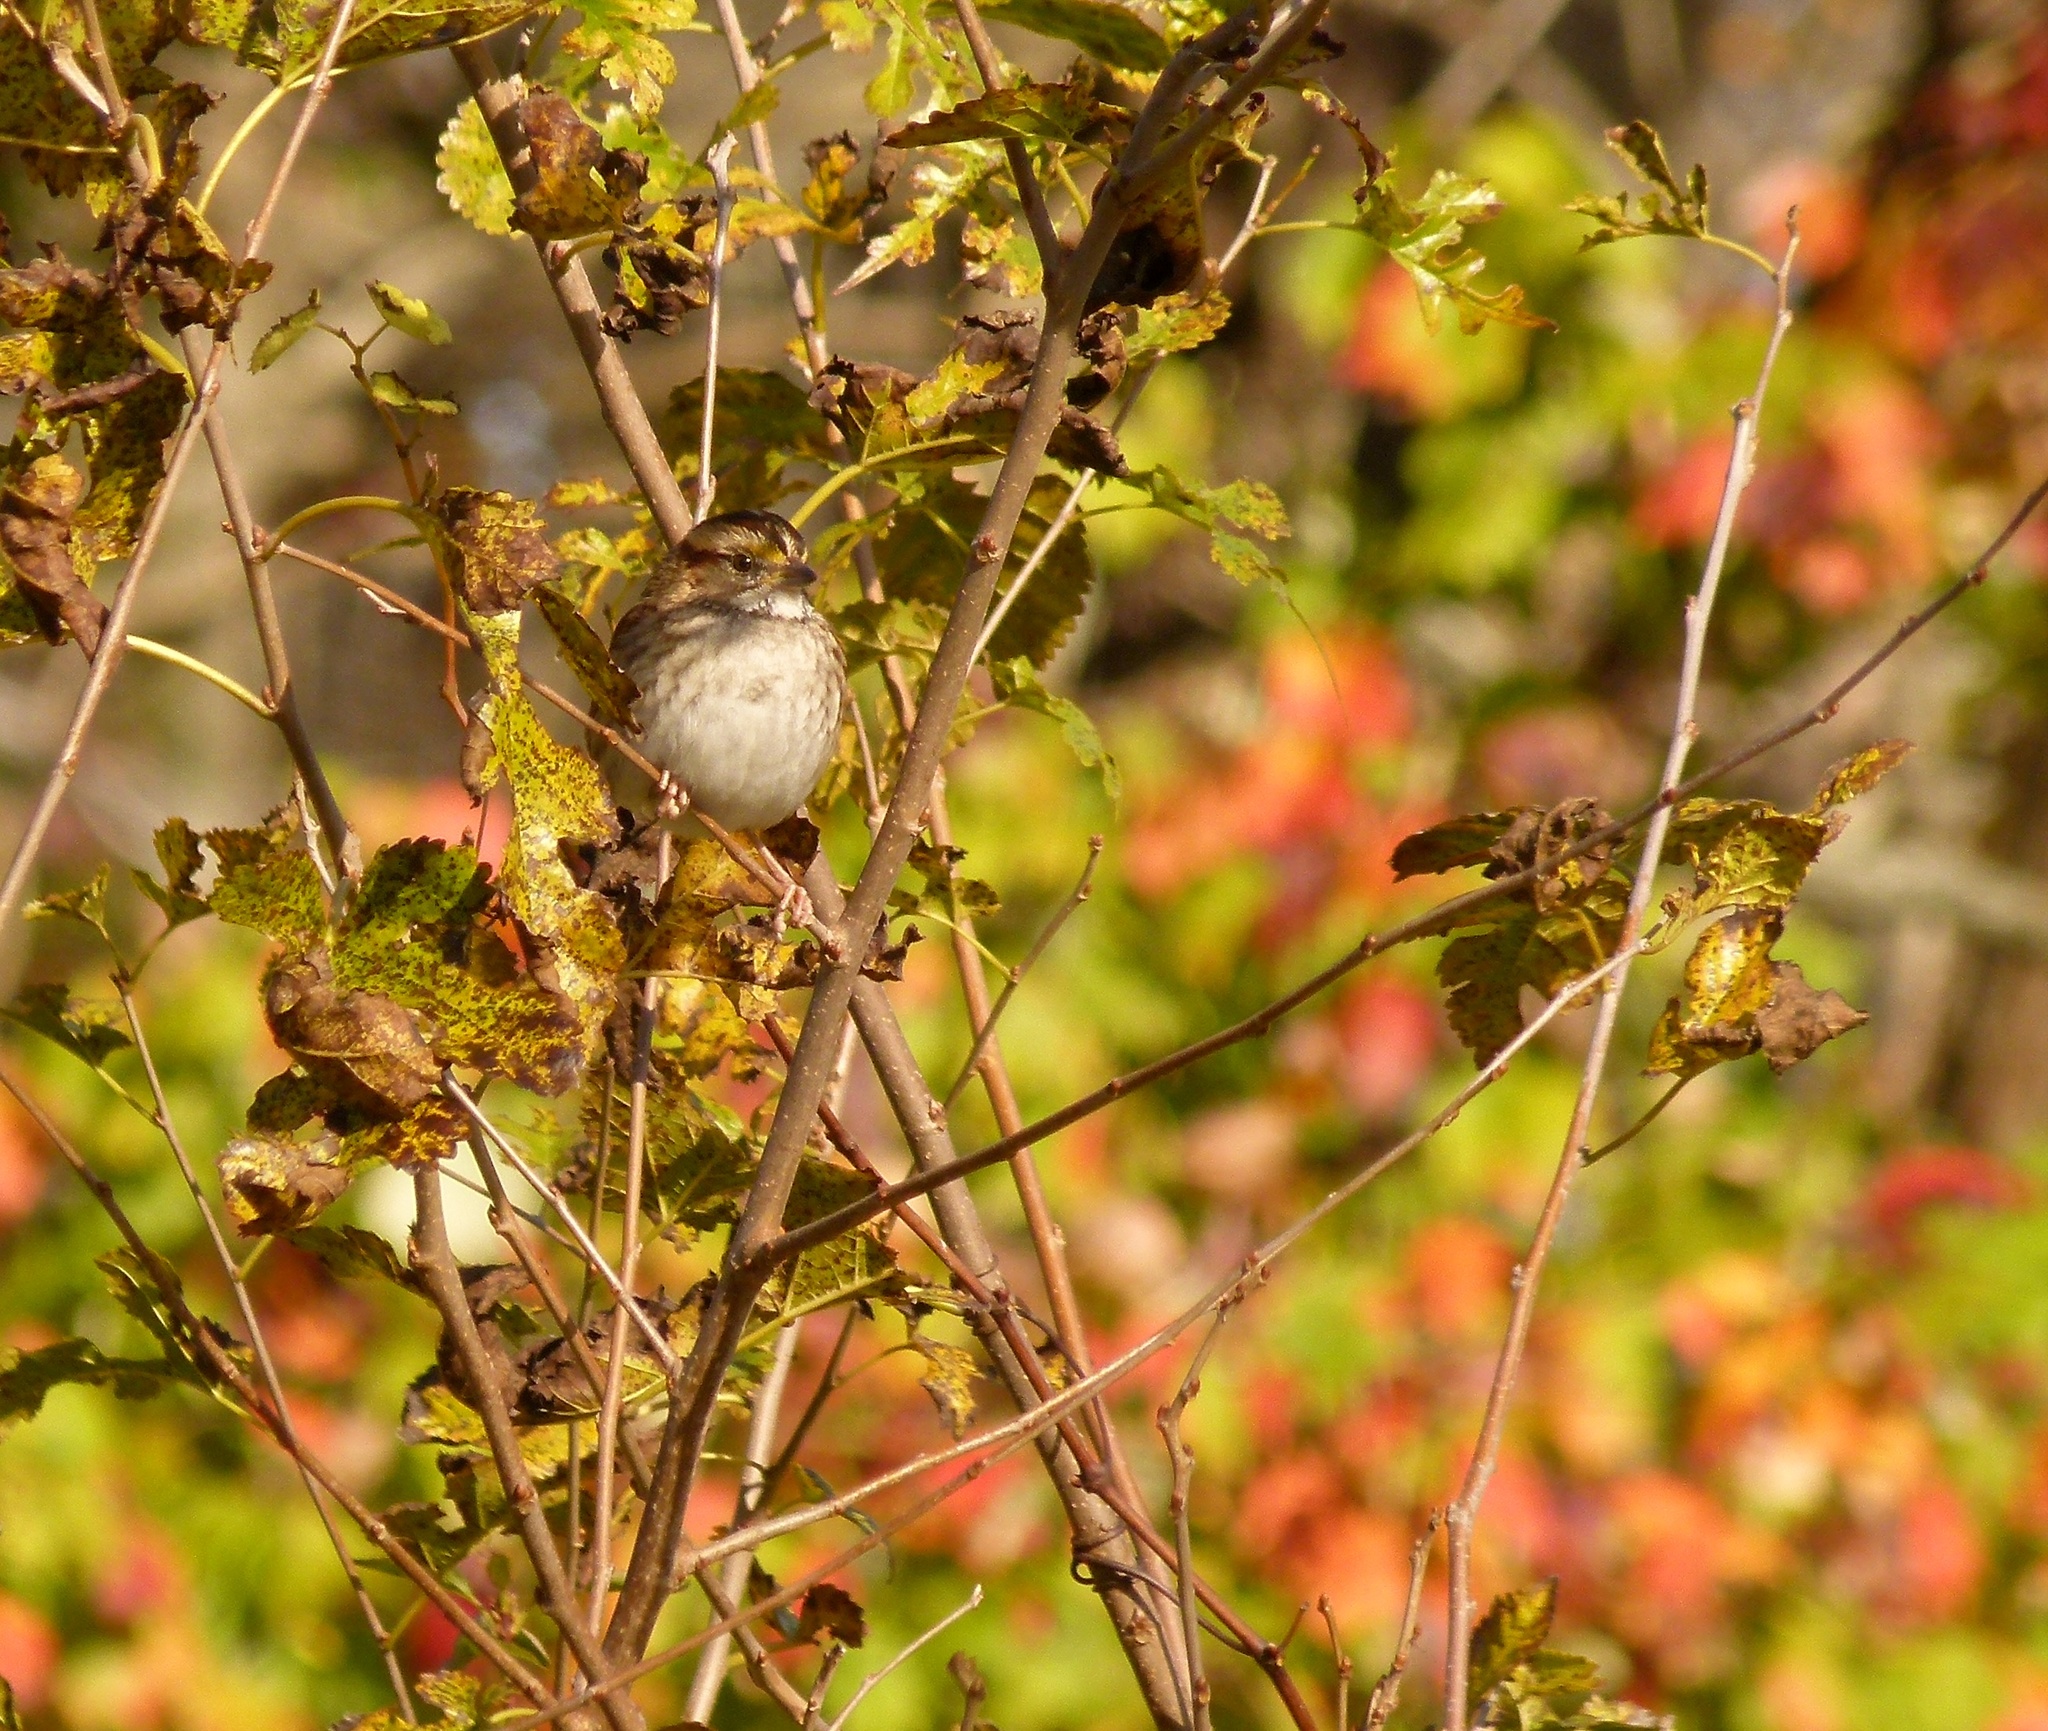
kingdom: Animalia
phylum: Chordata
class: Aves
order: Passeriformes
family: Passerellidae
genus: Zonotrichia
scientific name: Zonotrichia albicollis
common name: White-throated sparrow
